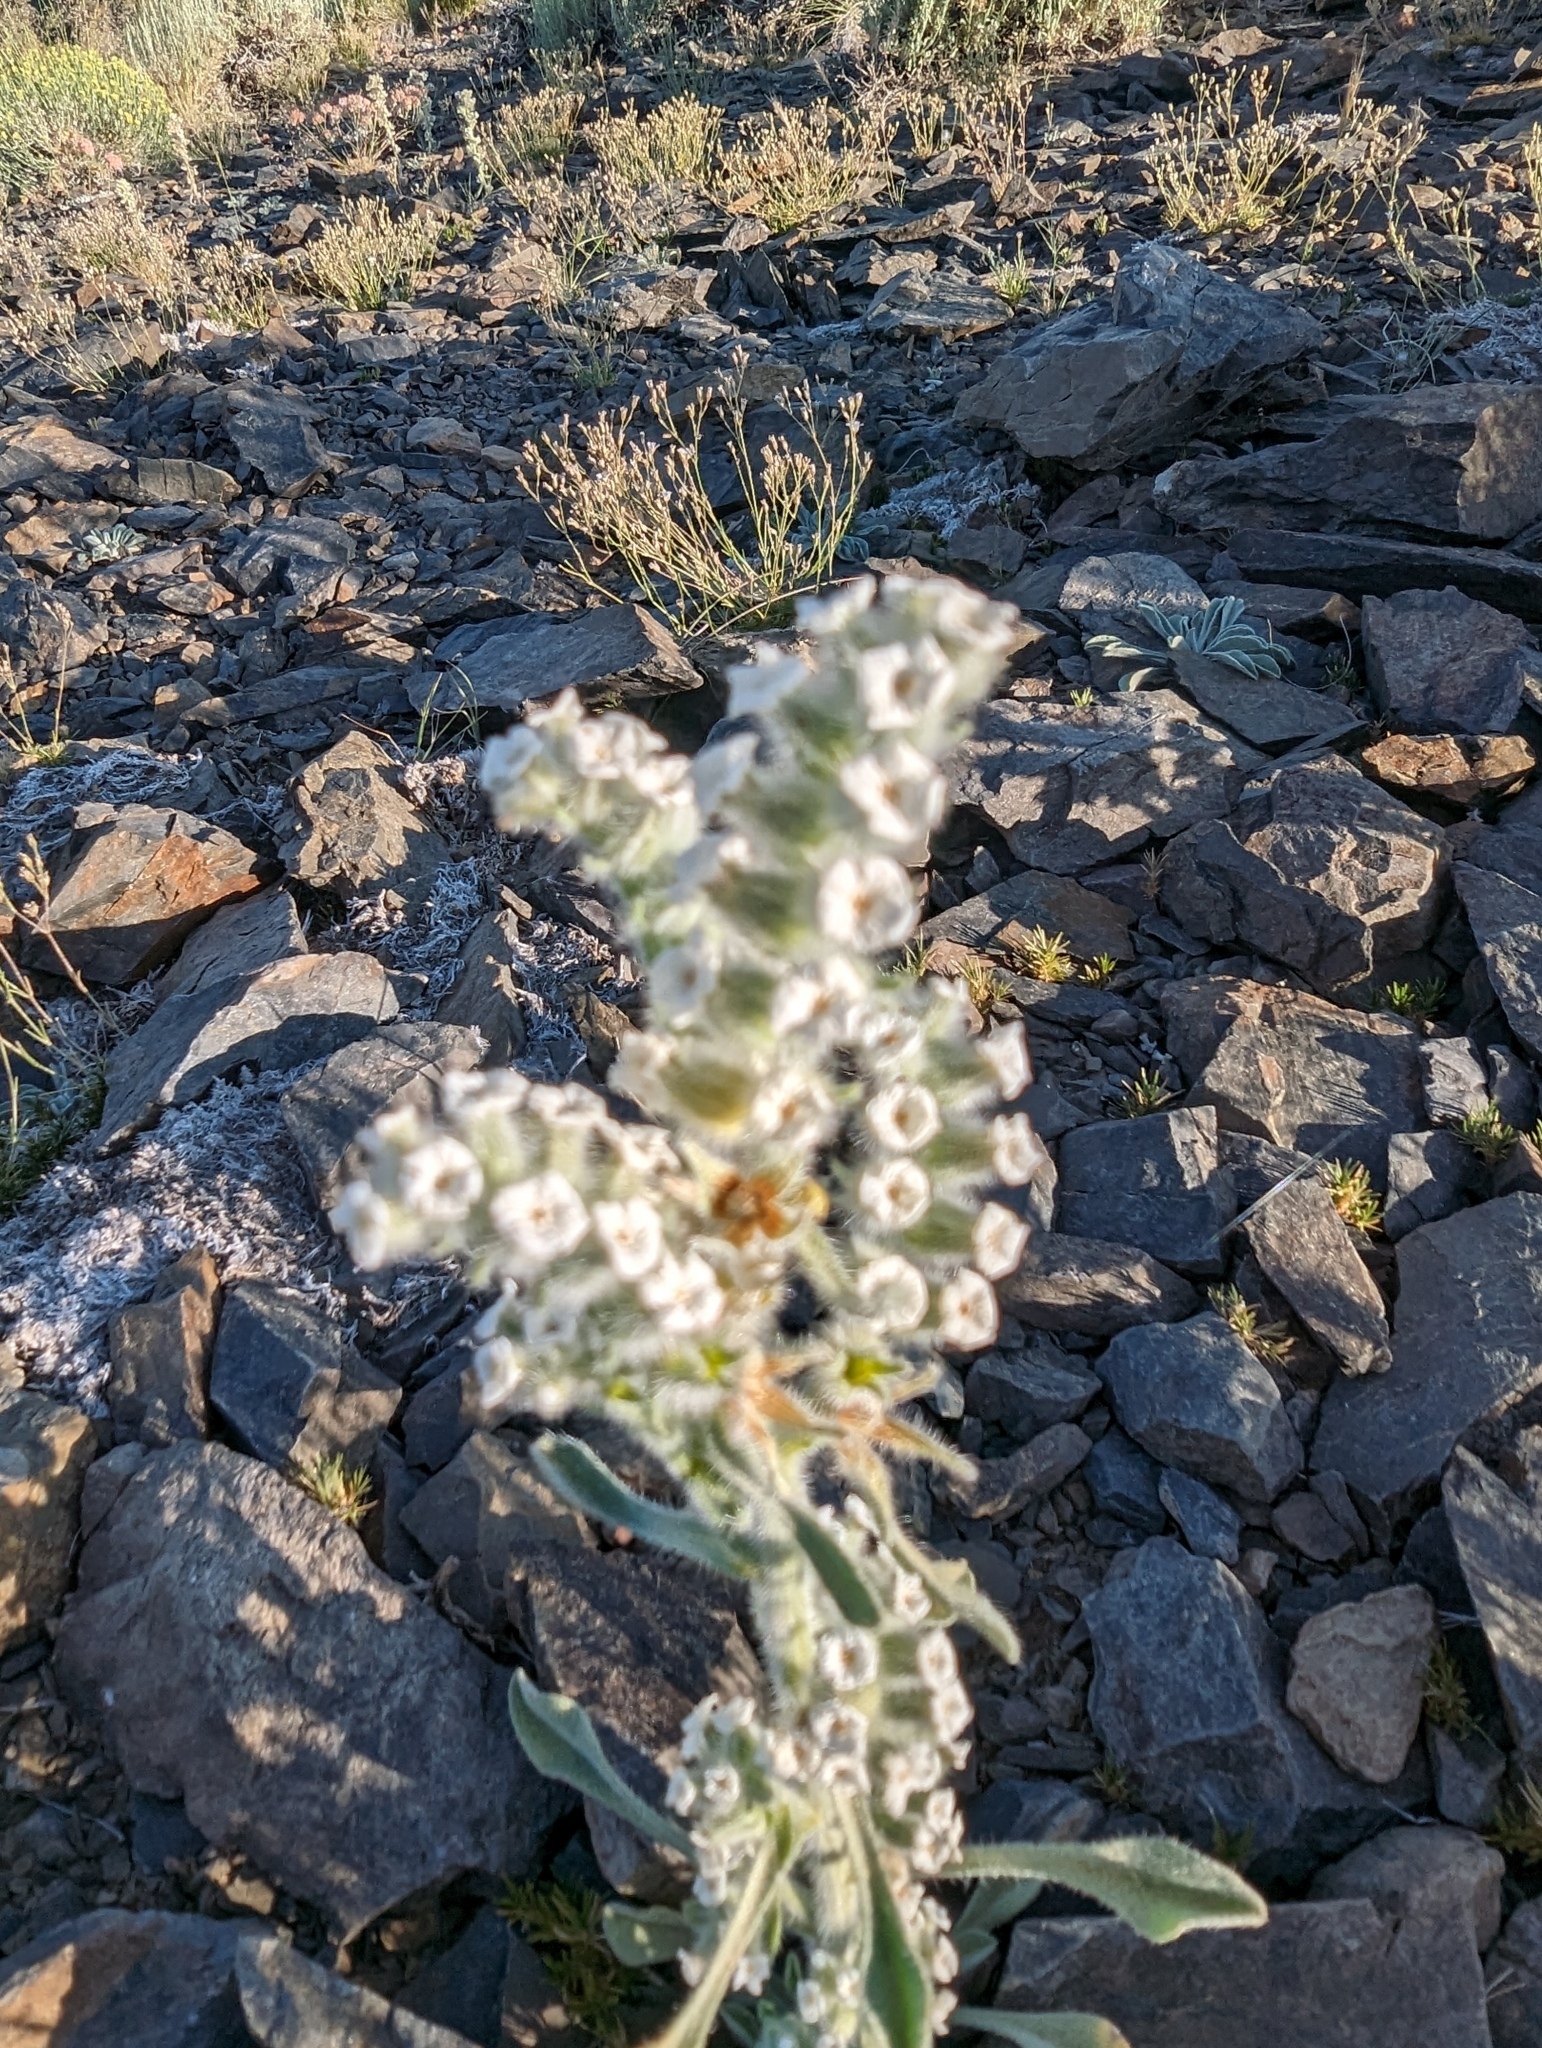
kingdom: Plantae
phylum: Tracheophyta
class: Magnoliopsida
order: Boraginales
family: Boraginaceae
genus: Oreocarya
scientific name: Oreocarya hoffmannii
